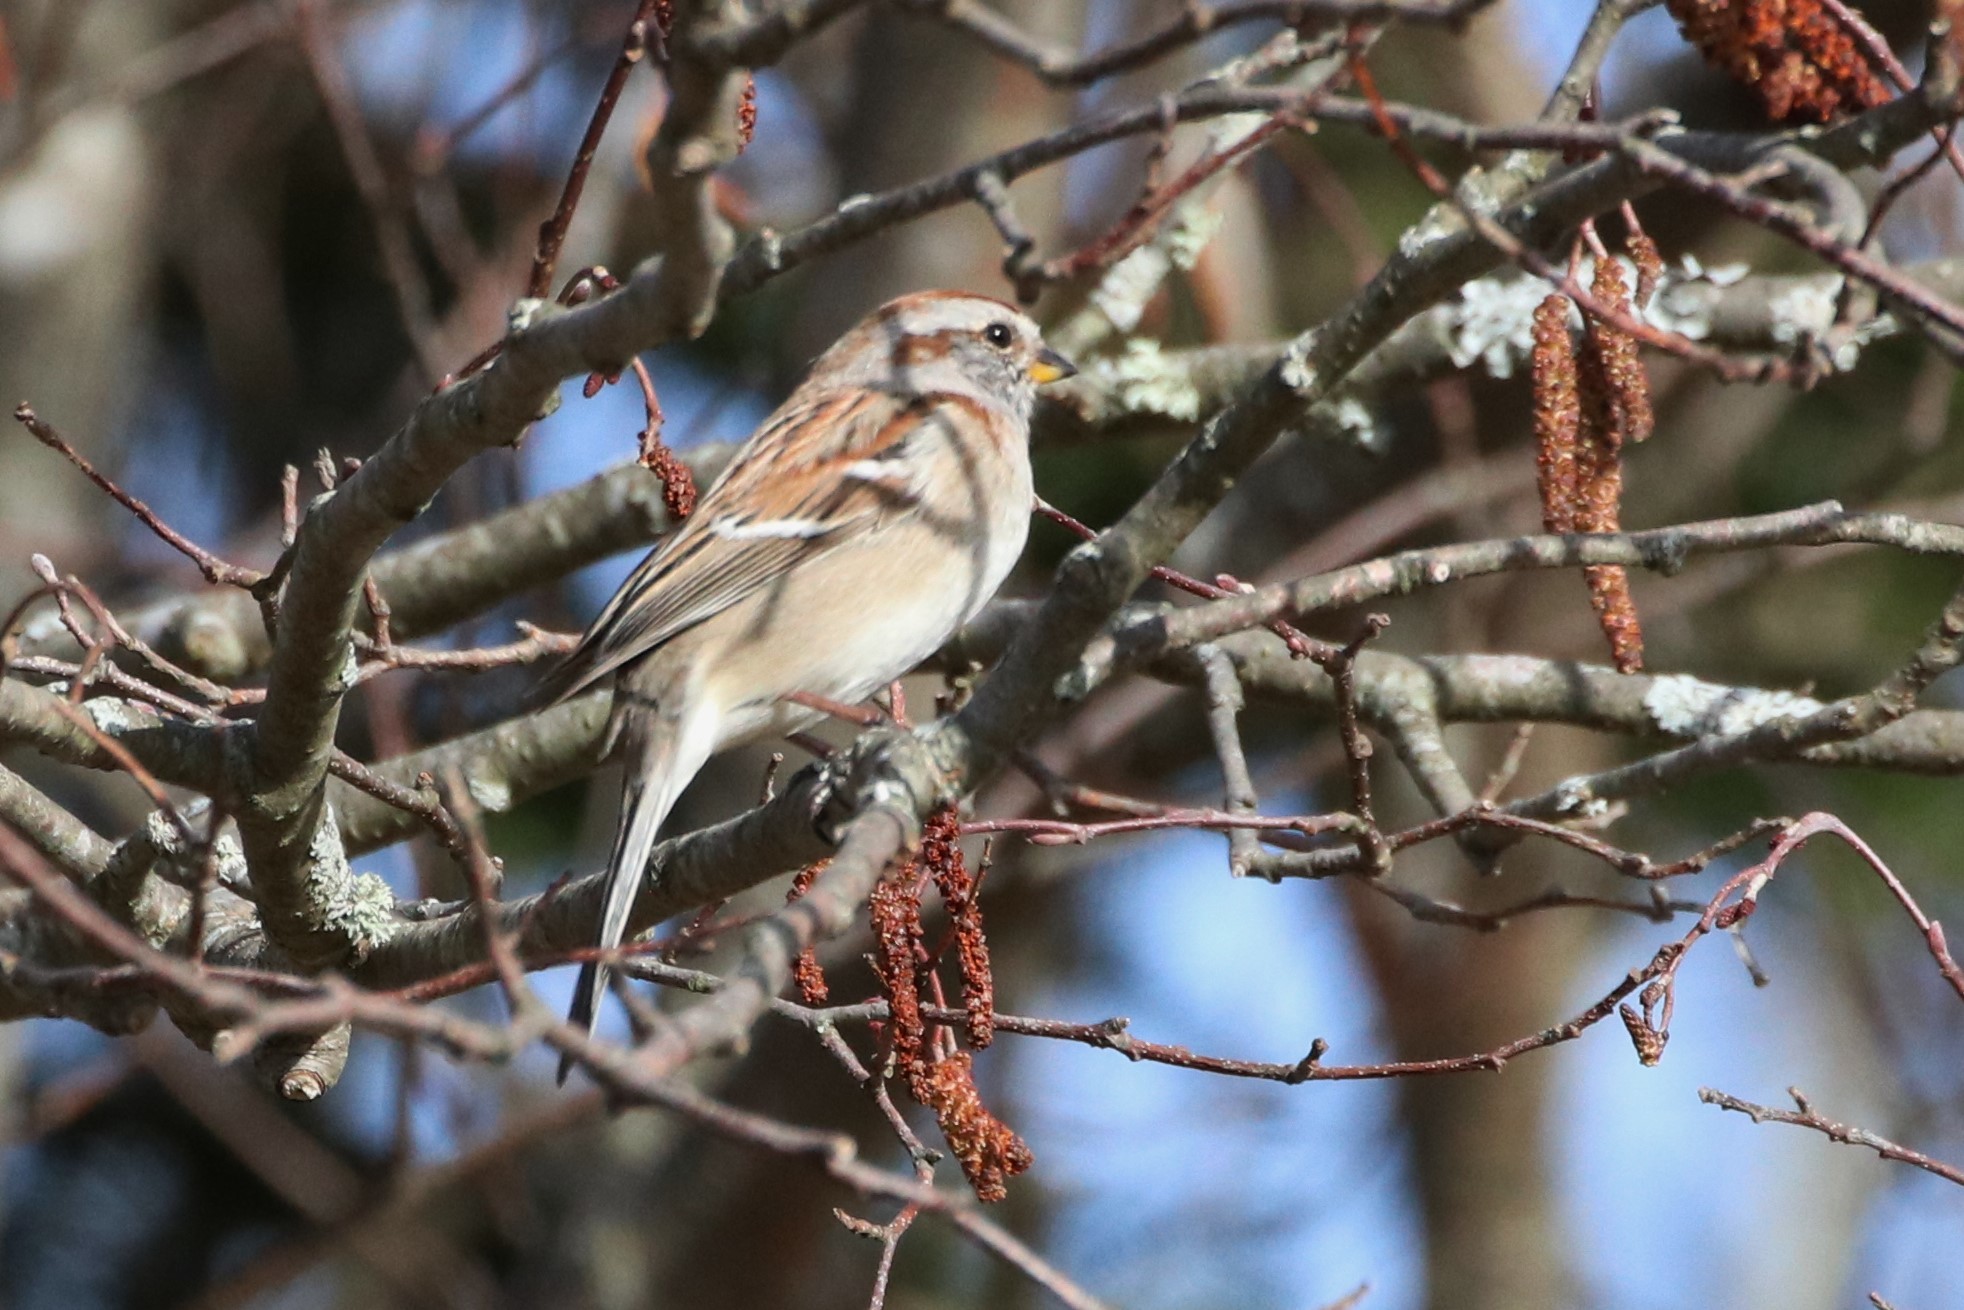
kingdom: Animalia
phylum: Chordata
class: Aves
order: Passeriformes
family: Passerellidae
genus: Spizelloides
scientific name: Spizelloides arborea
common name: American tree sparrow
